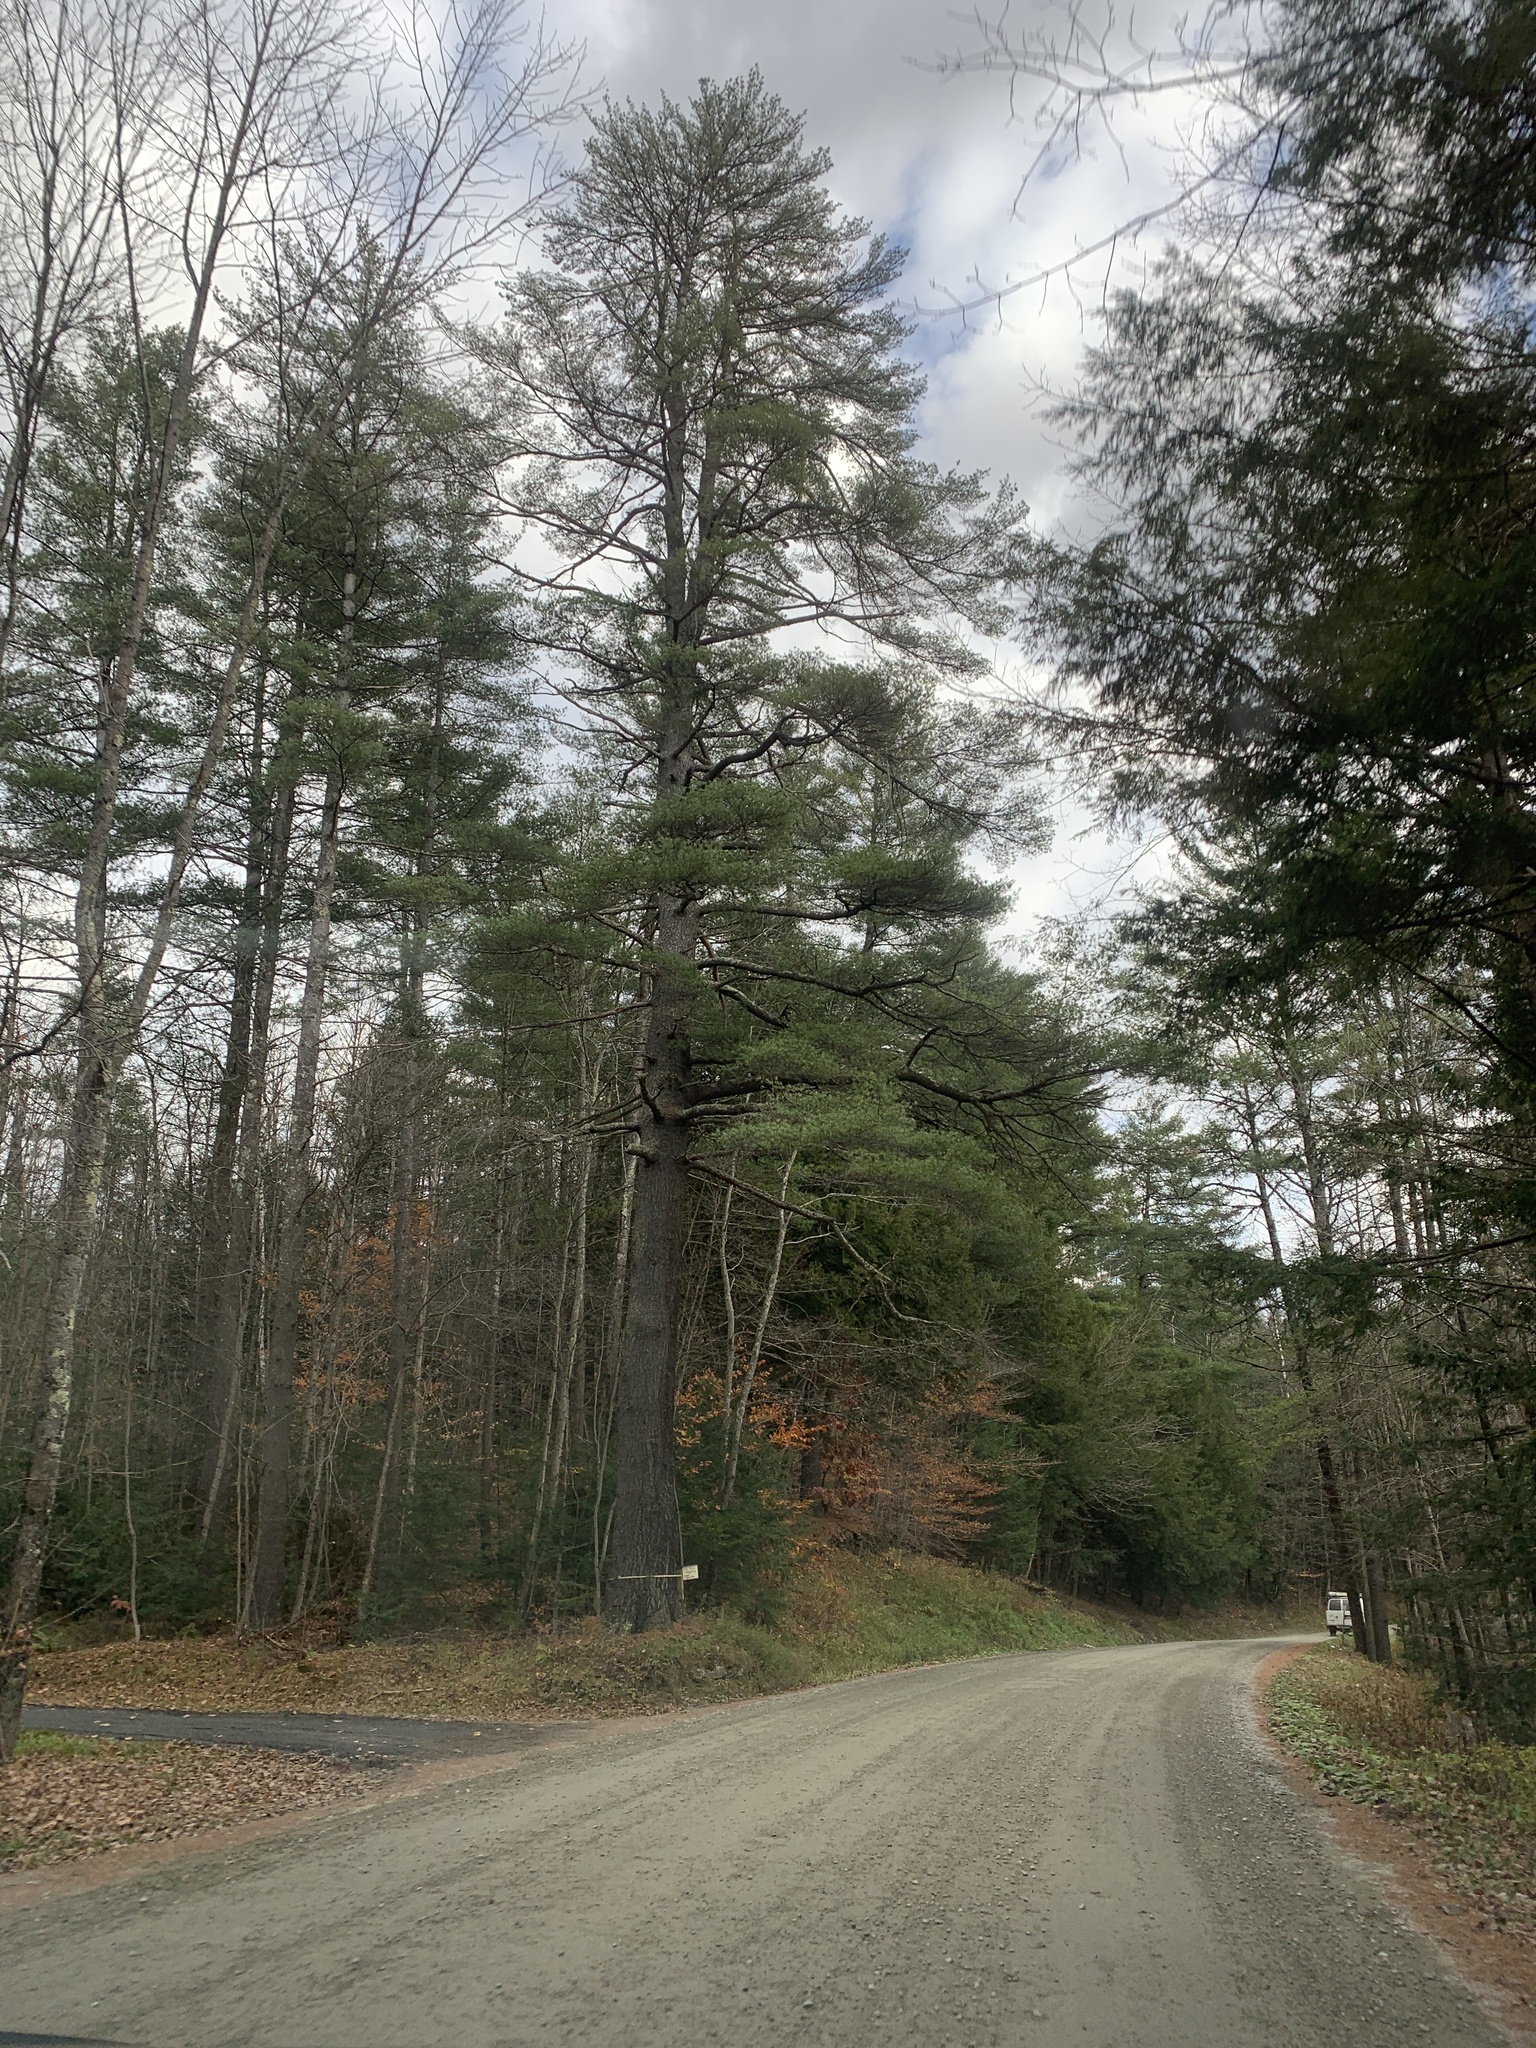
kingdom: Plantae
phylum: Tracheophyta
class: Pinopsida
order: Pinales
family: Pinaceae
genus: Pinus
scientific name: Pinus strobus
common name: Weymouth pine
